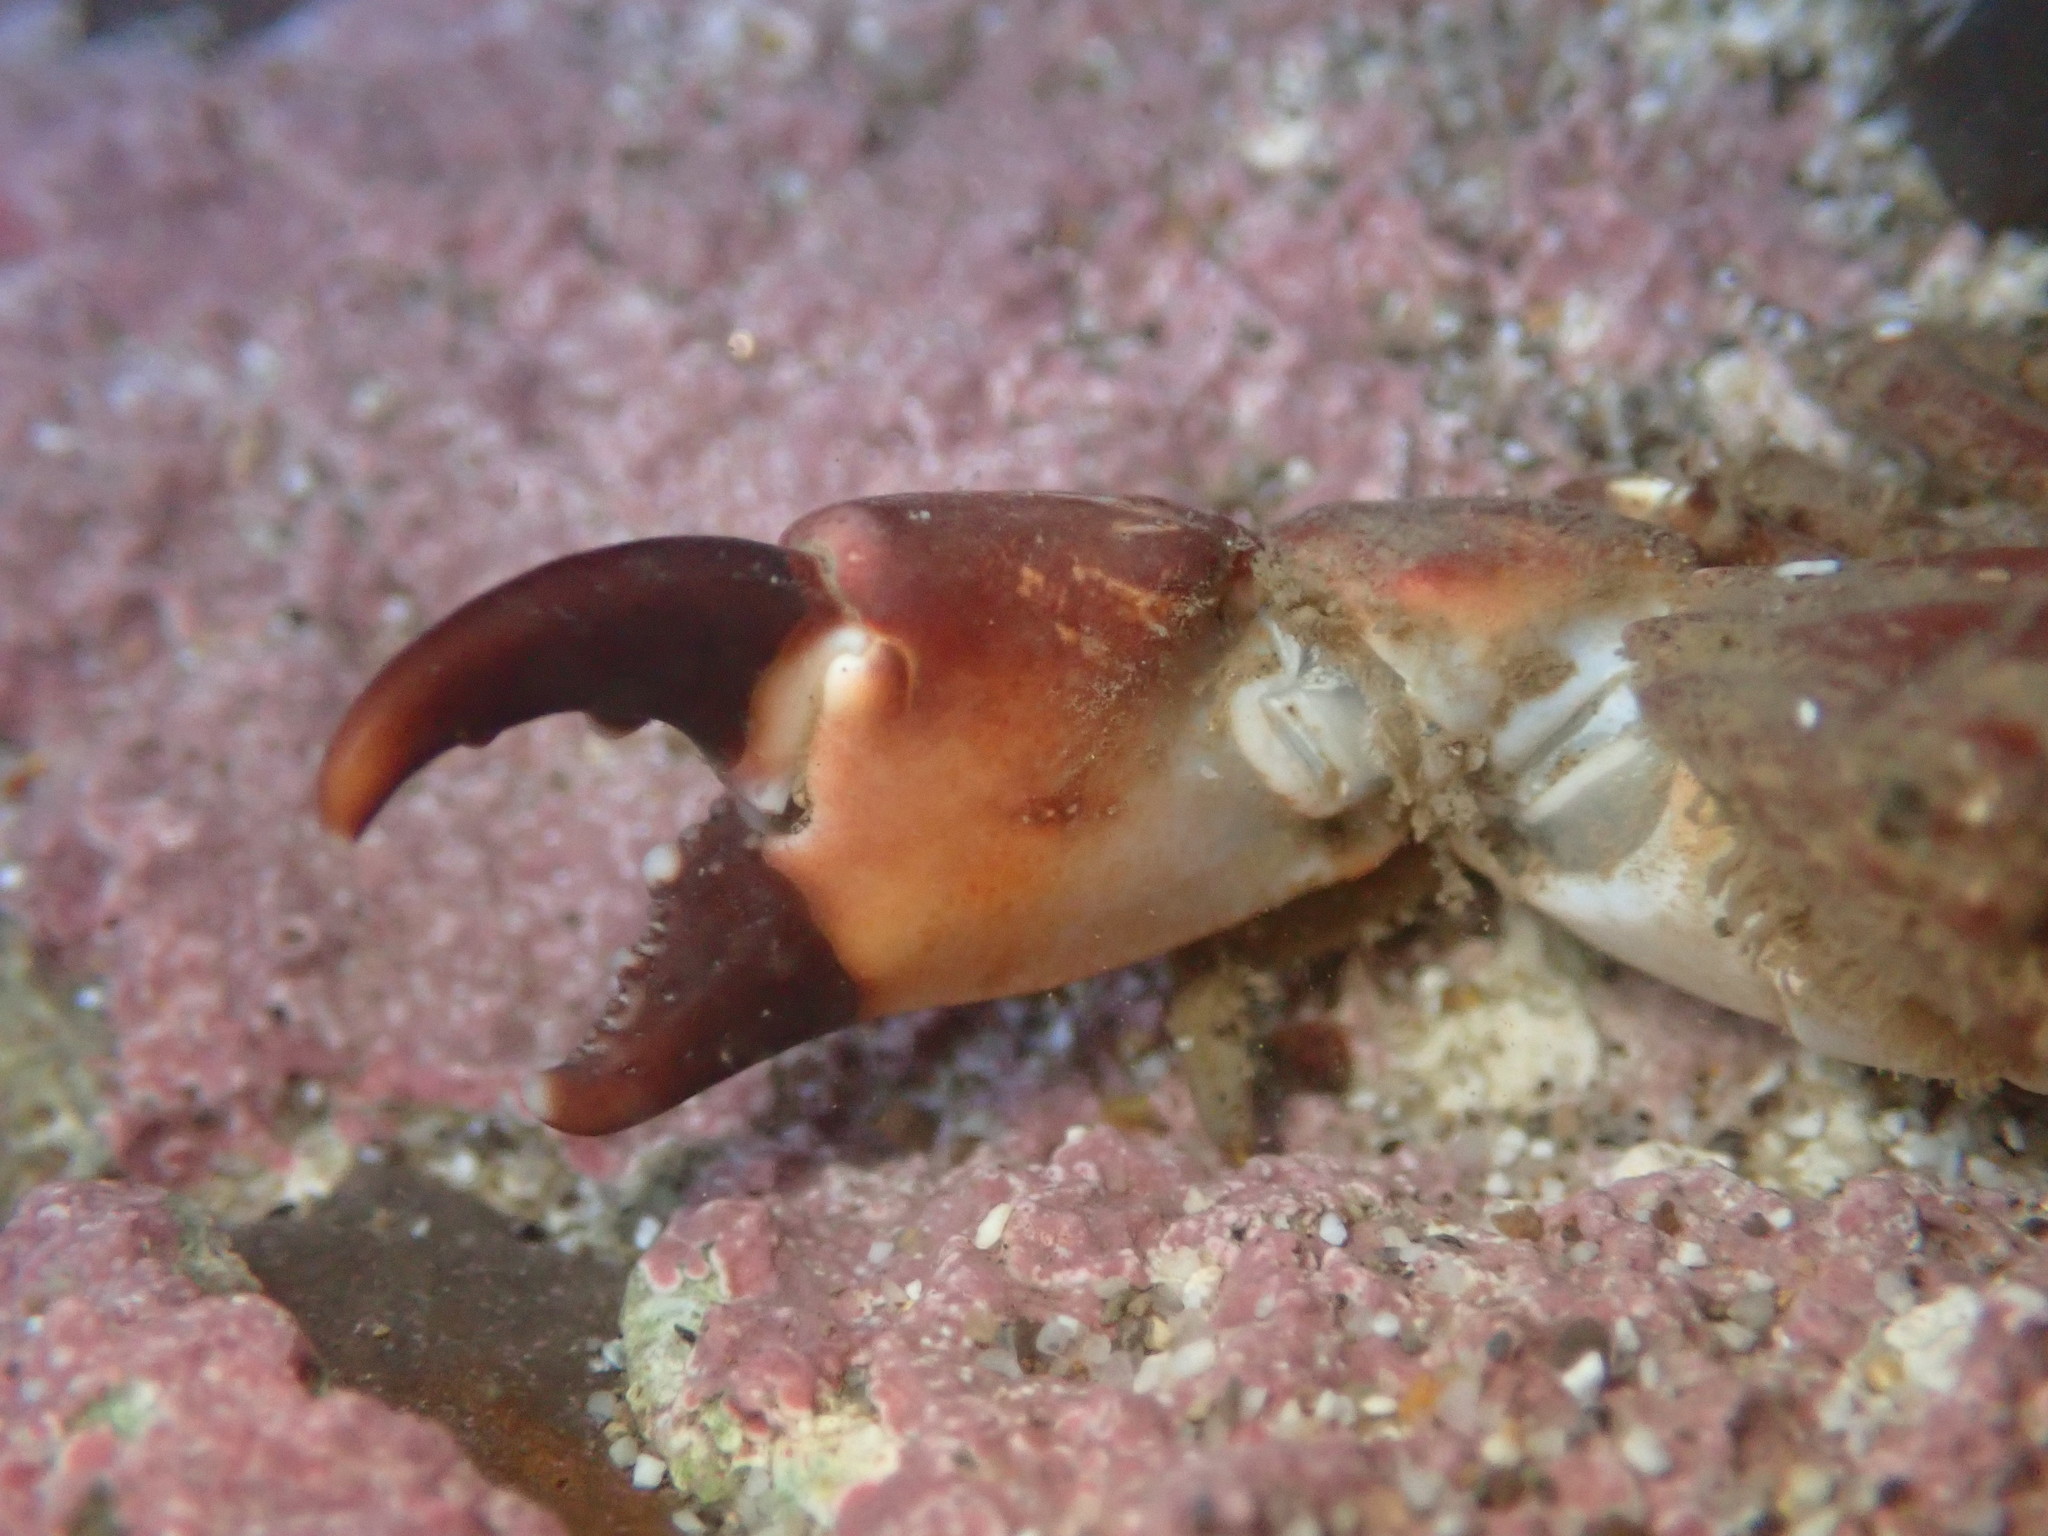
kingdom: Animalia
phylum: Arthropoda
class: Malacostraca
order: Decapoda
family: Panopeidae
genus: Lophopanopeus
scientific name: Lophopanopeus bellus
